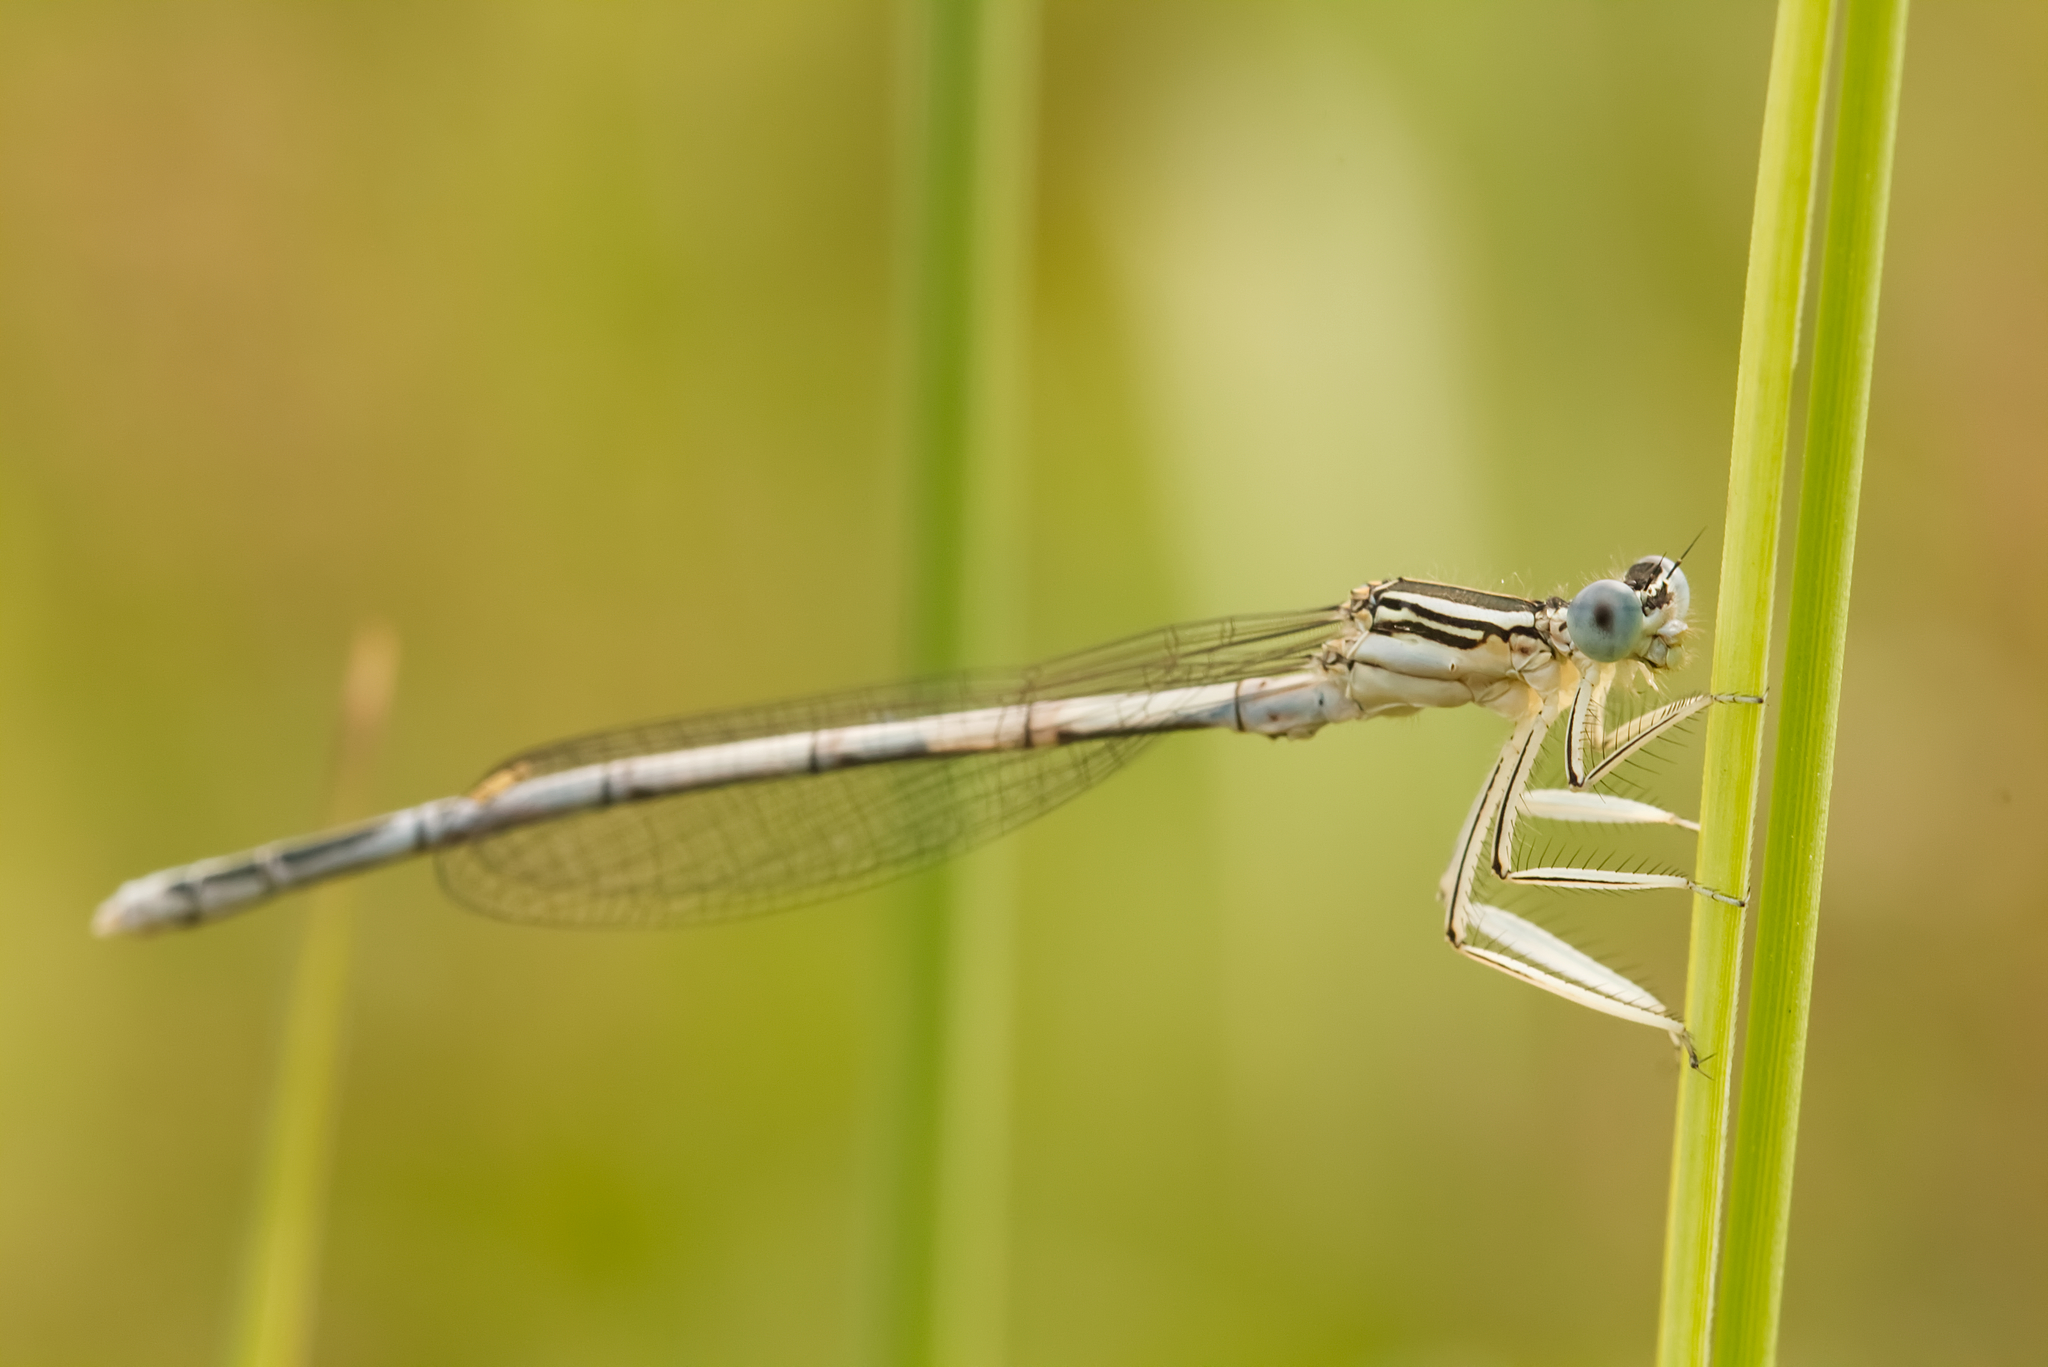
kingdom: Animalia
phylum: Arthropoda
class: Insecta
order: Odonata
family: Platycnemididae
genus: Platycnemis
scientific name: Platycnemis pennipes
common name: White-legged damselfly
